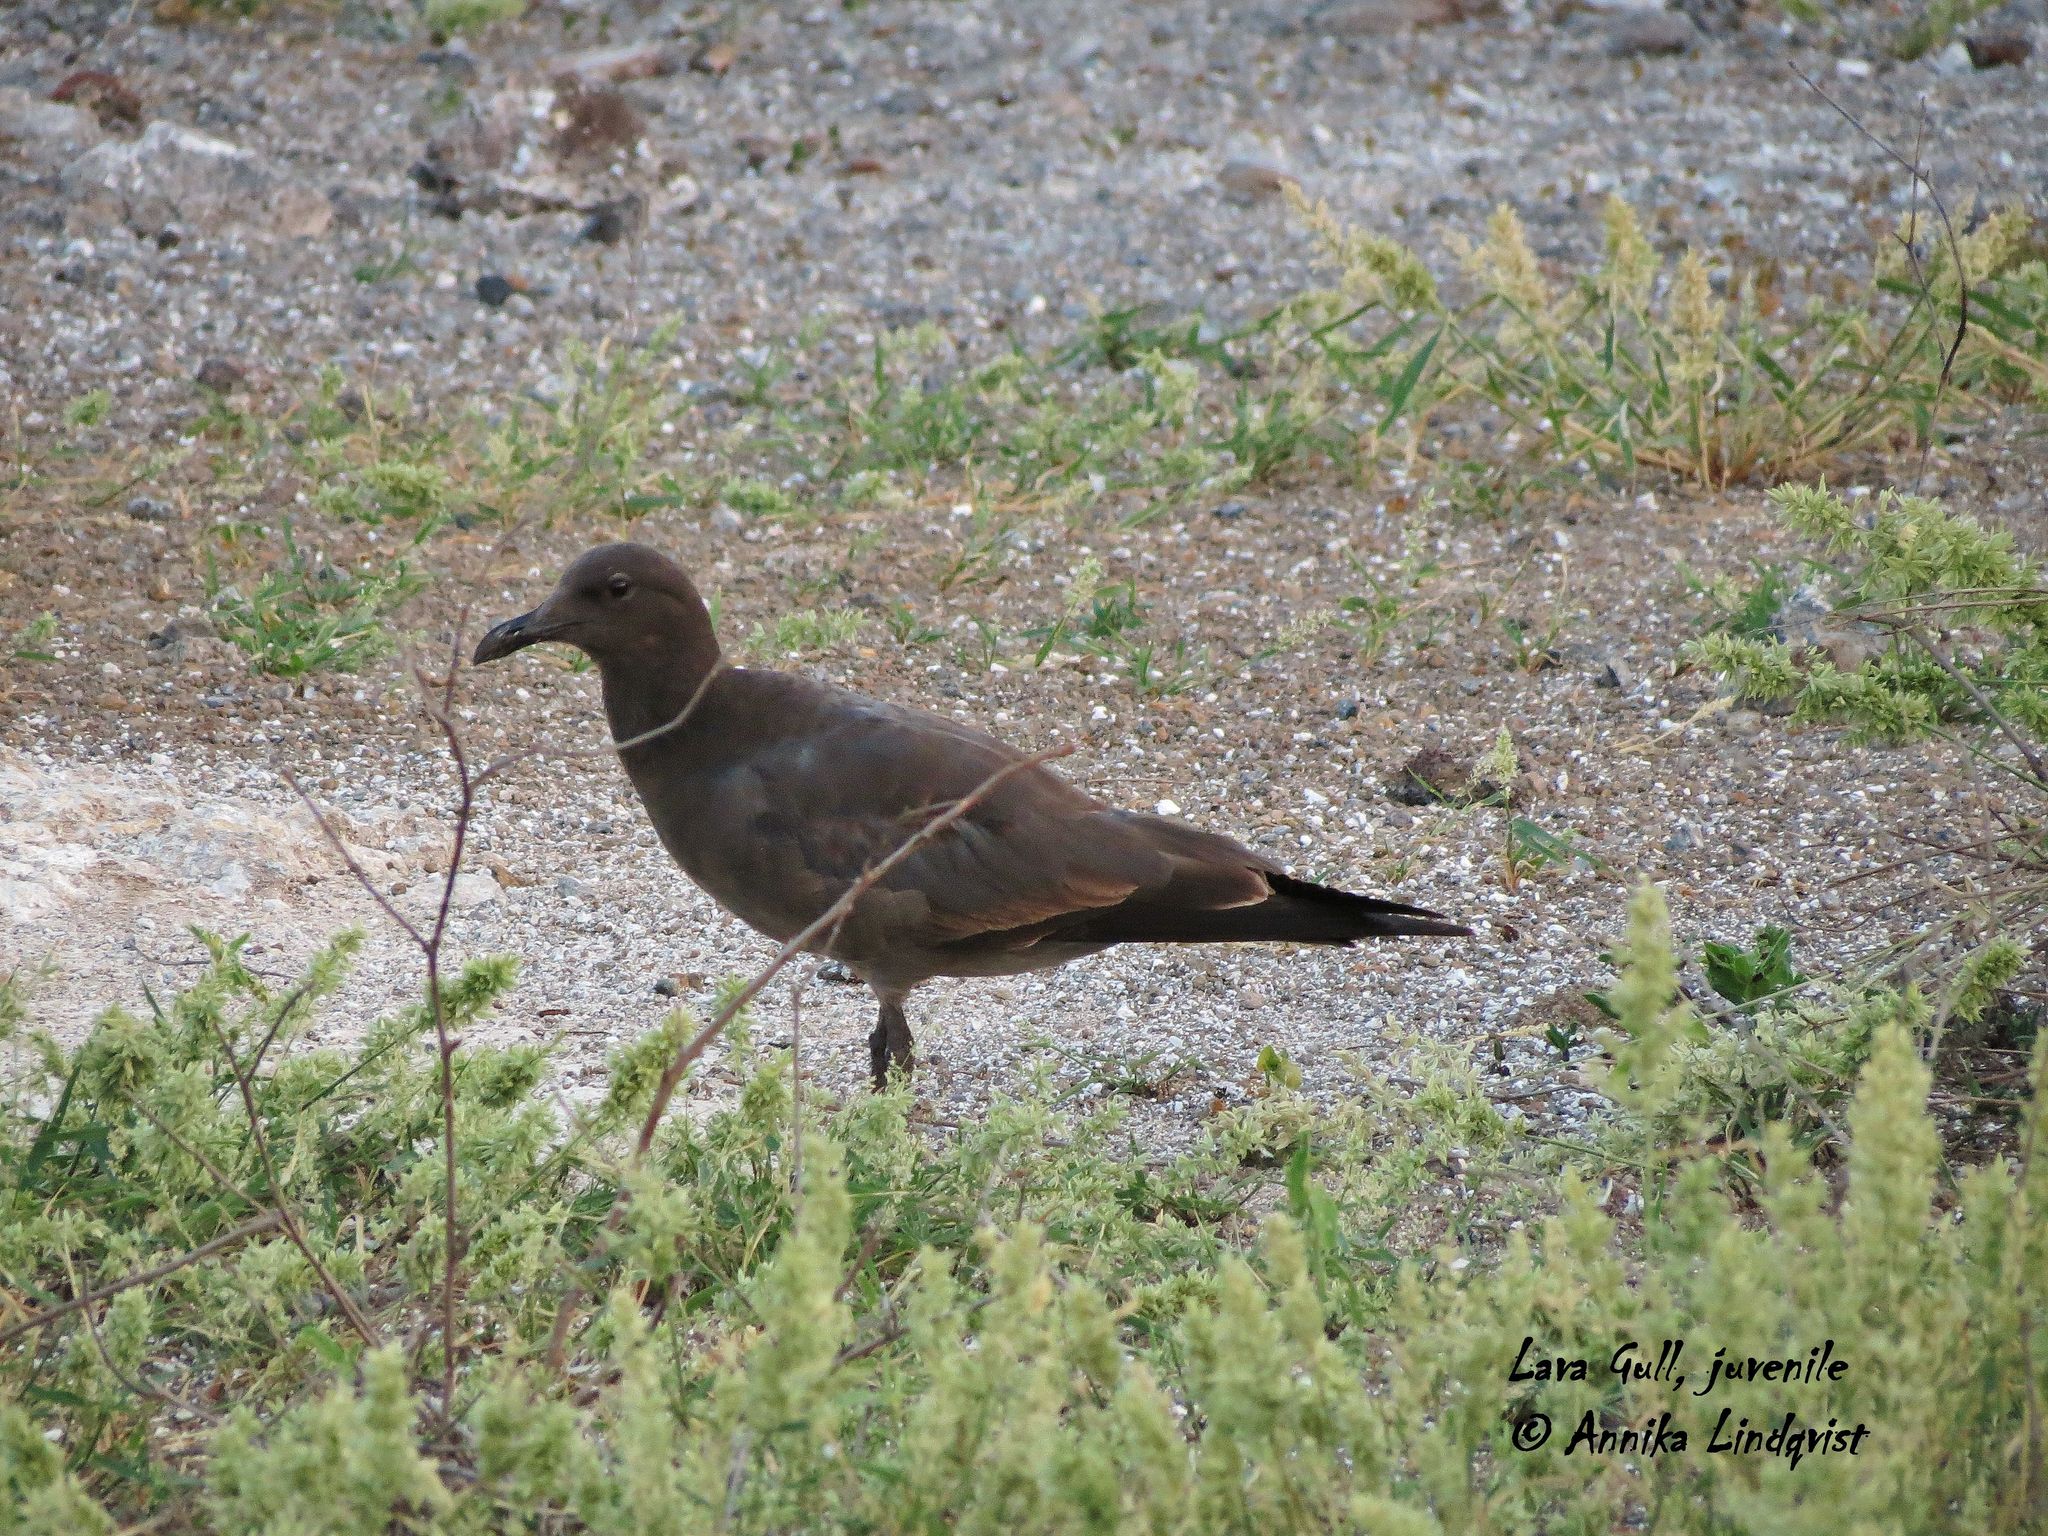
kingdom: Animalia
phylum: Chordata
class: Aves
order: Charadriiformes
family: Laridae
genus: Leucophaeus
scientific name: Leucophaeus fuliginosus
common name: Lava gull
